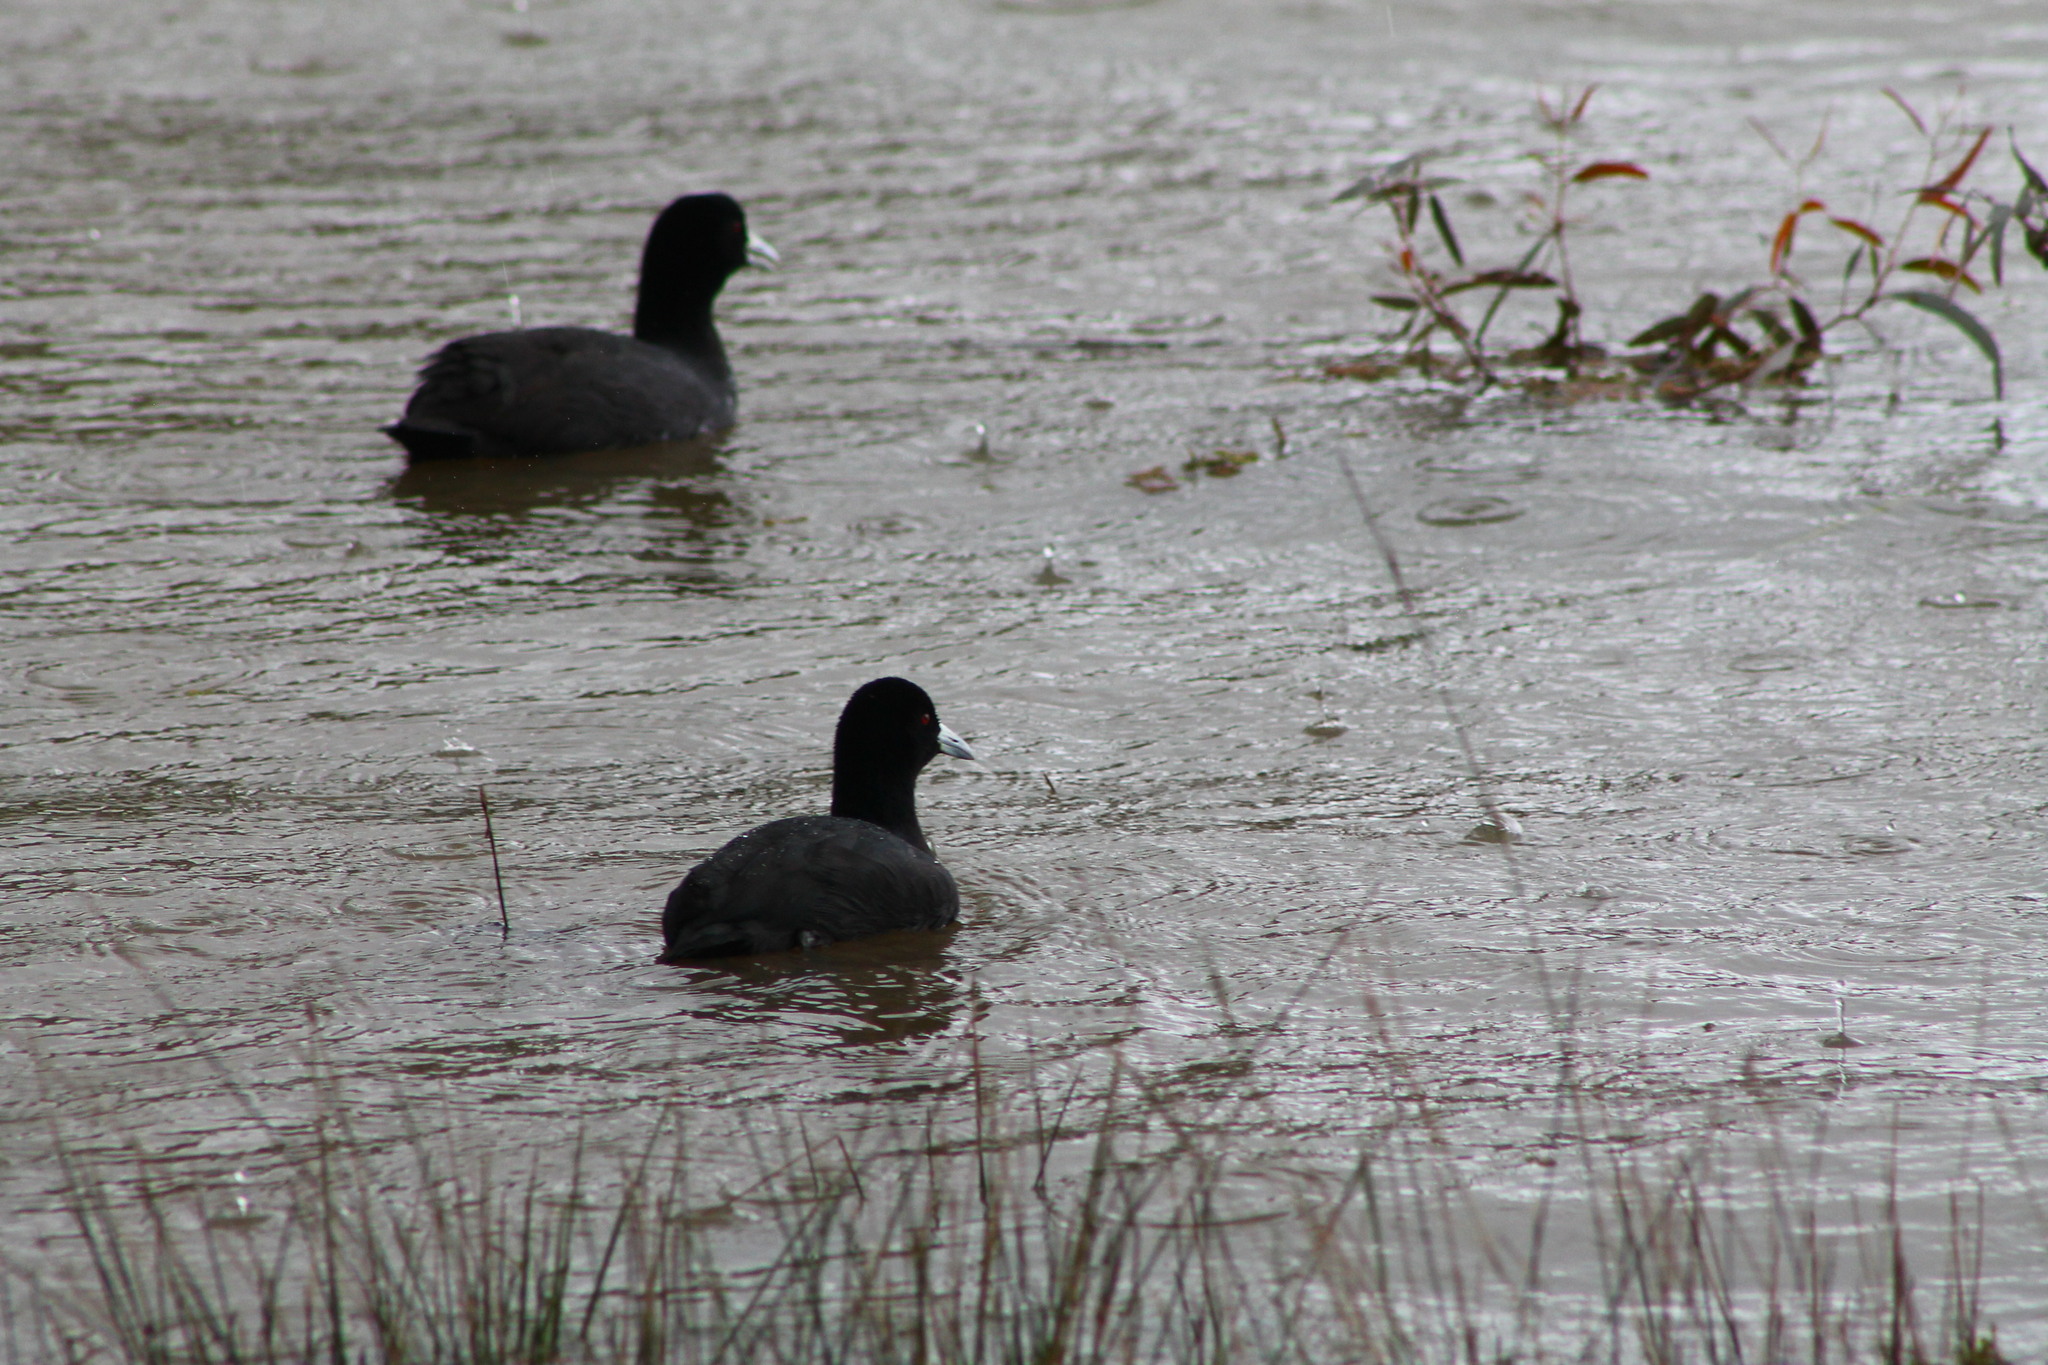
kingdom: Animalia
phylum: Chordata
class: Aves
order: Gruiformes
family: Rallidae
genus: Fulica
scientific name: Fulica atra
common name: Eurasian coot
